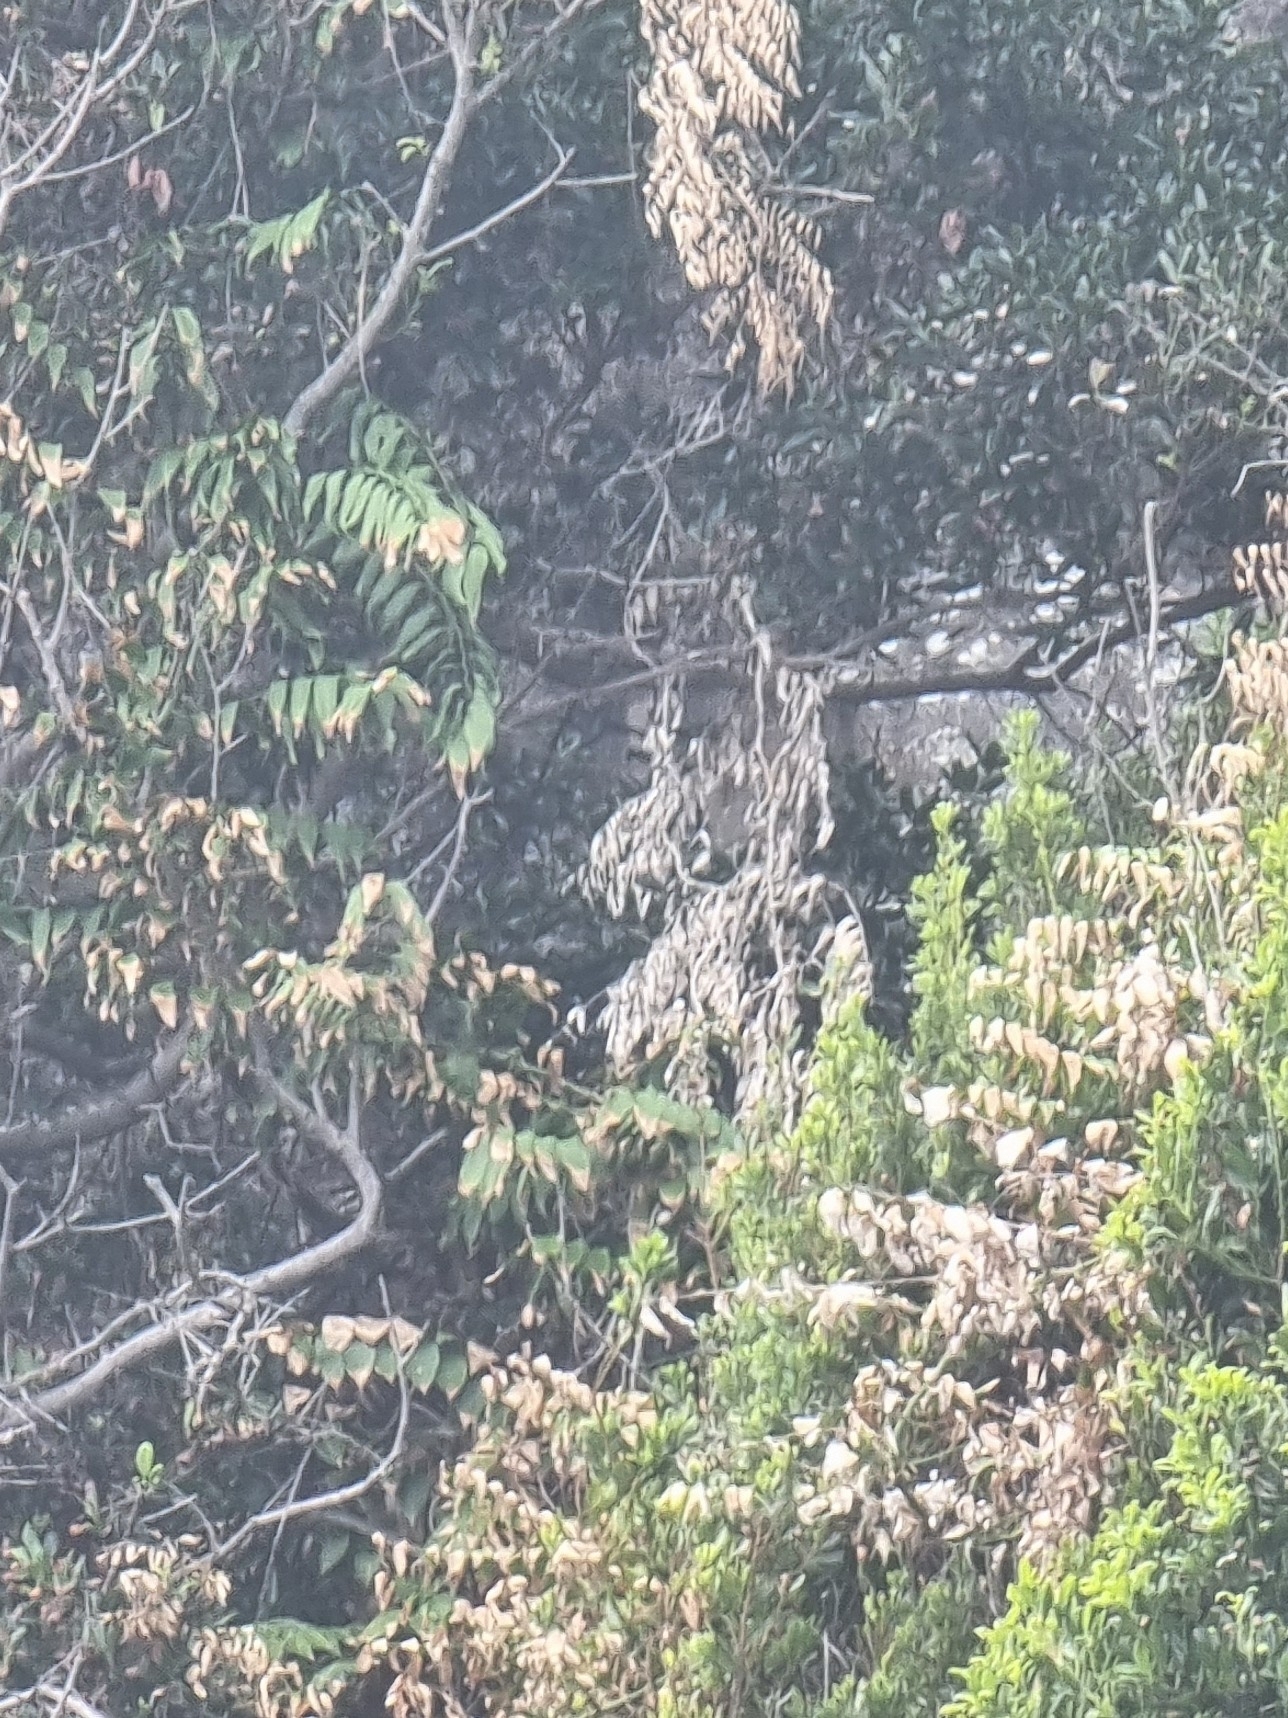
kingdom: Plantae
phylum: Tracheophyta
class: Liliopsida
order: Asparagales
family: Asparagaceae
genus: Semele
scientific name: Semele androgyna
